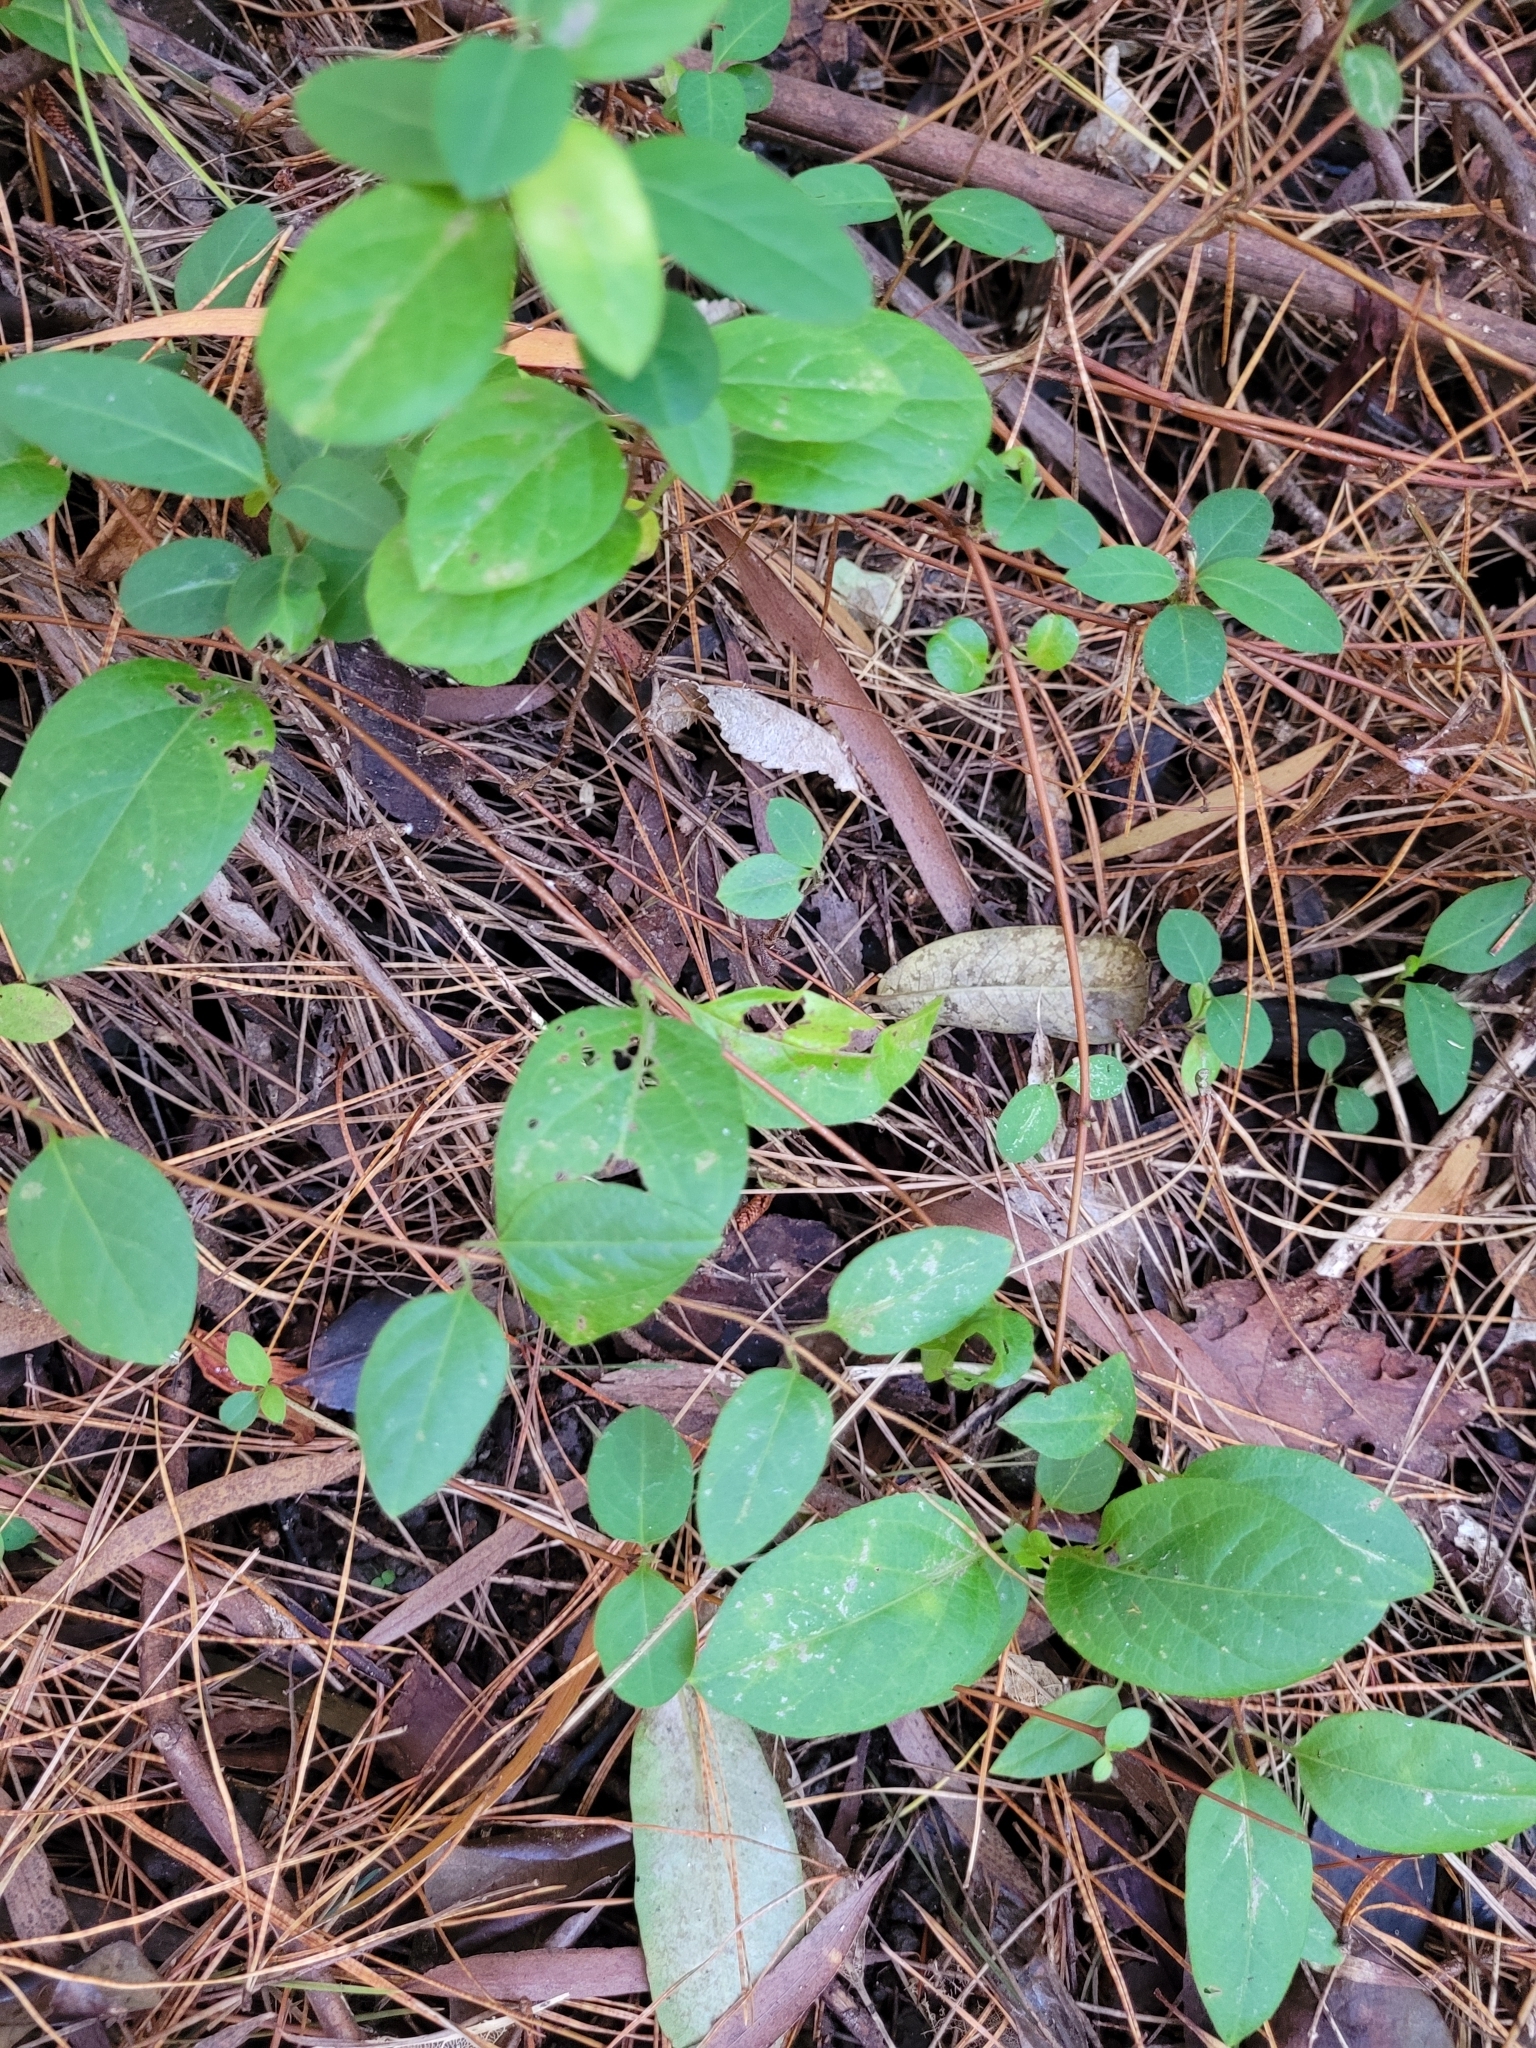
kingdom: Plantae
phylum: Tracheophyta
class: Magnoliopsida
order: Dipsacales
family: Caprifoliaceae
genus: Lonicera
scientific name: Lonicera japonica
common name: Japanese honeysuckle
